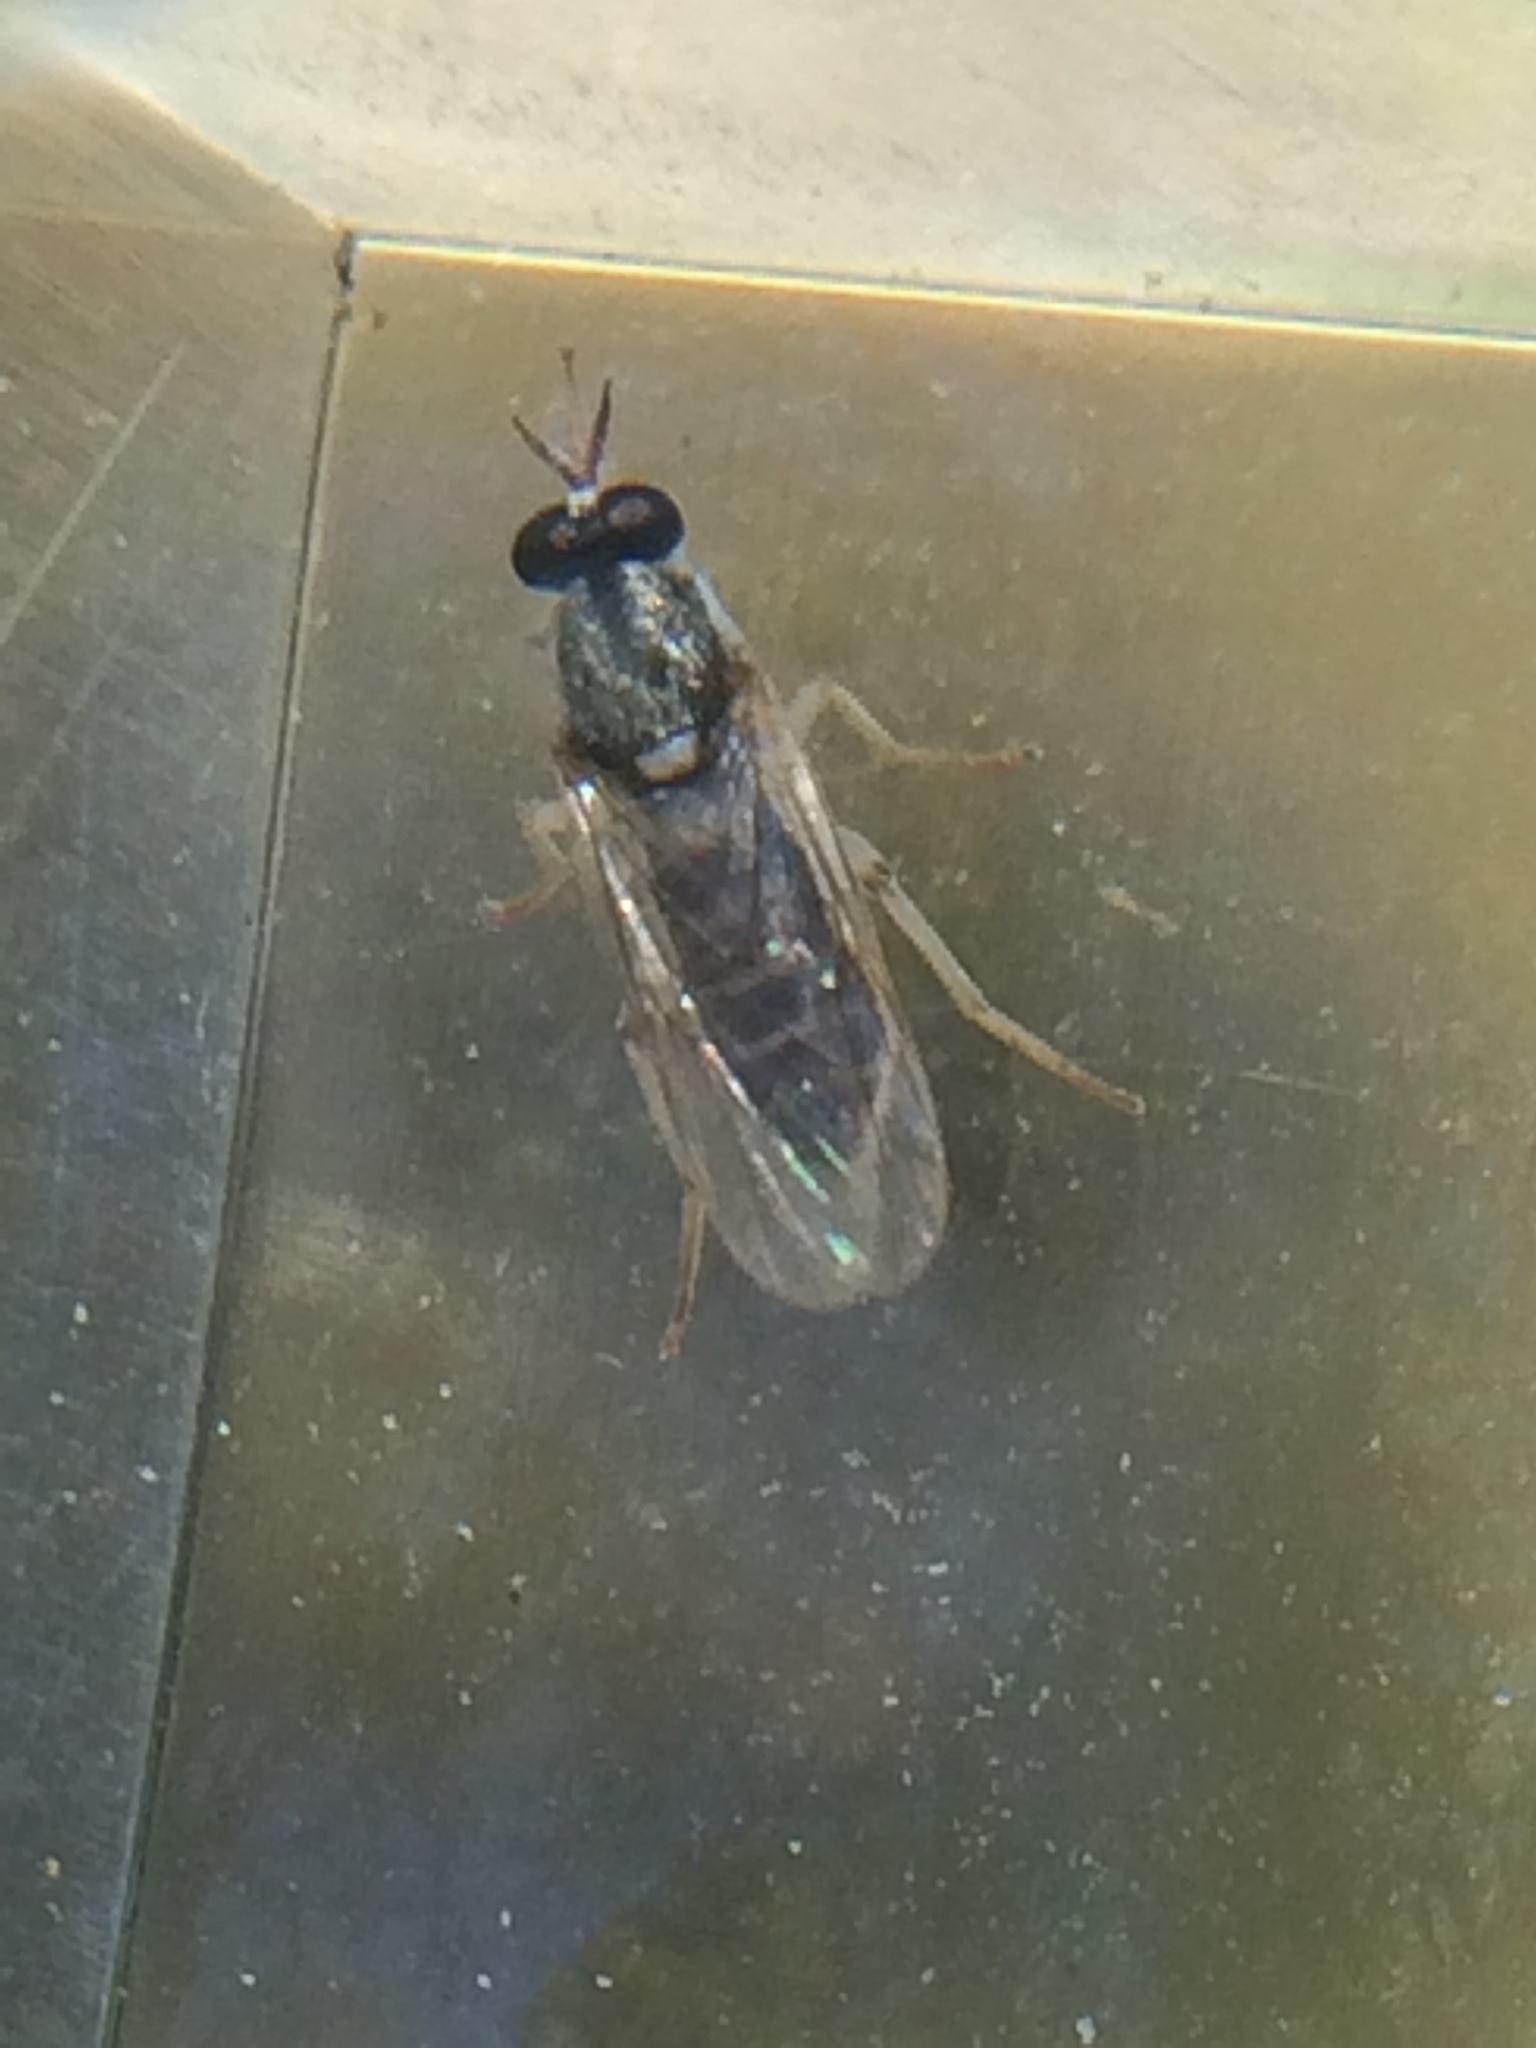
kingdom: Animalia
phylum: Arthropoda
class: Insecta
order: Diptera
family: Xylomyidae
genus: Solva
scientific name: Solva pallipes
